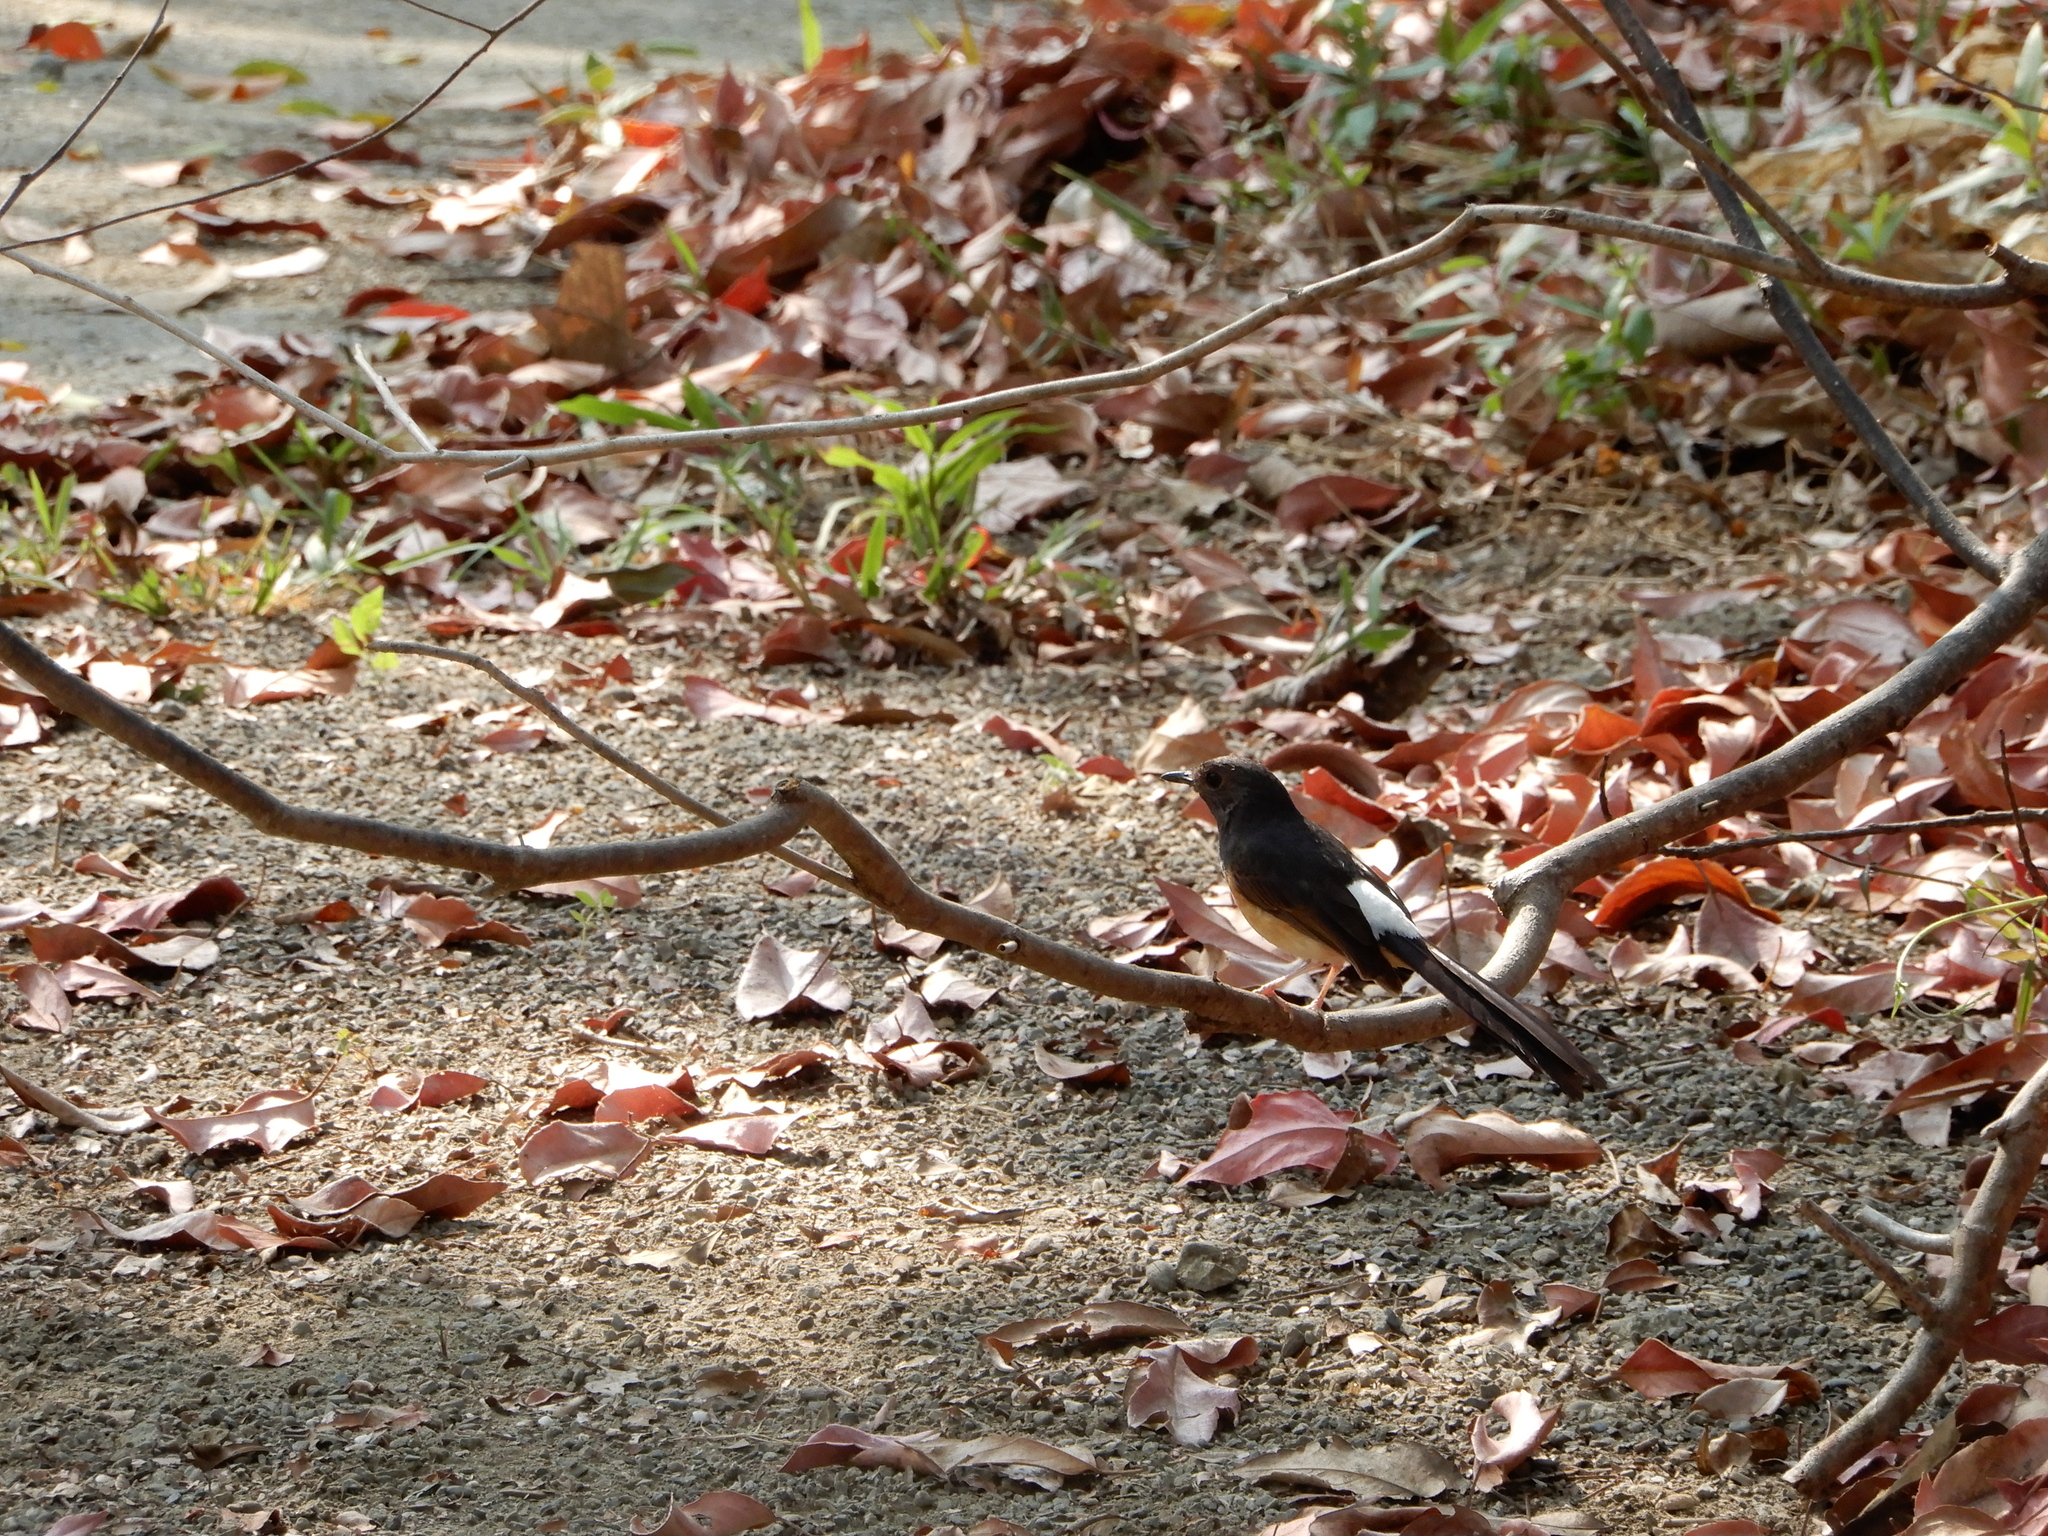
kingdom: Animalia
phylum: Chordata
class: Aves
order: Passeriformes
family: Muscicapidae
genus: Copsychus
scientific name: Copsychus malabaricus
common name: White-rumped shama
